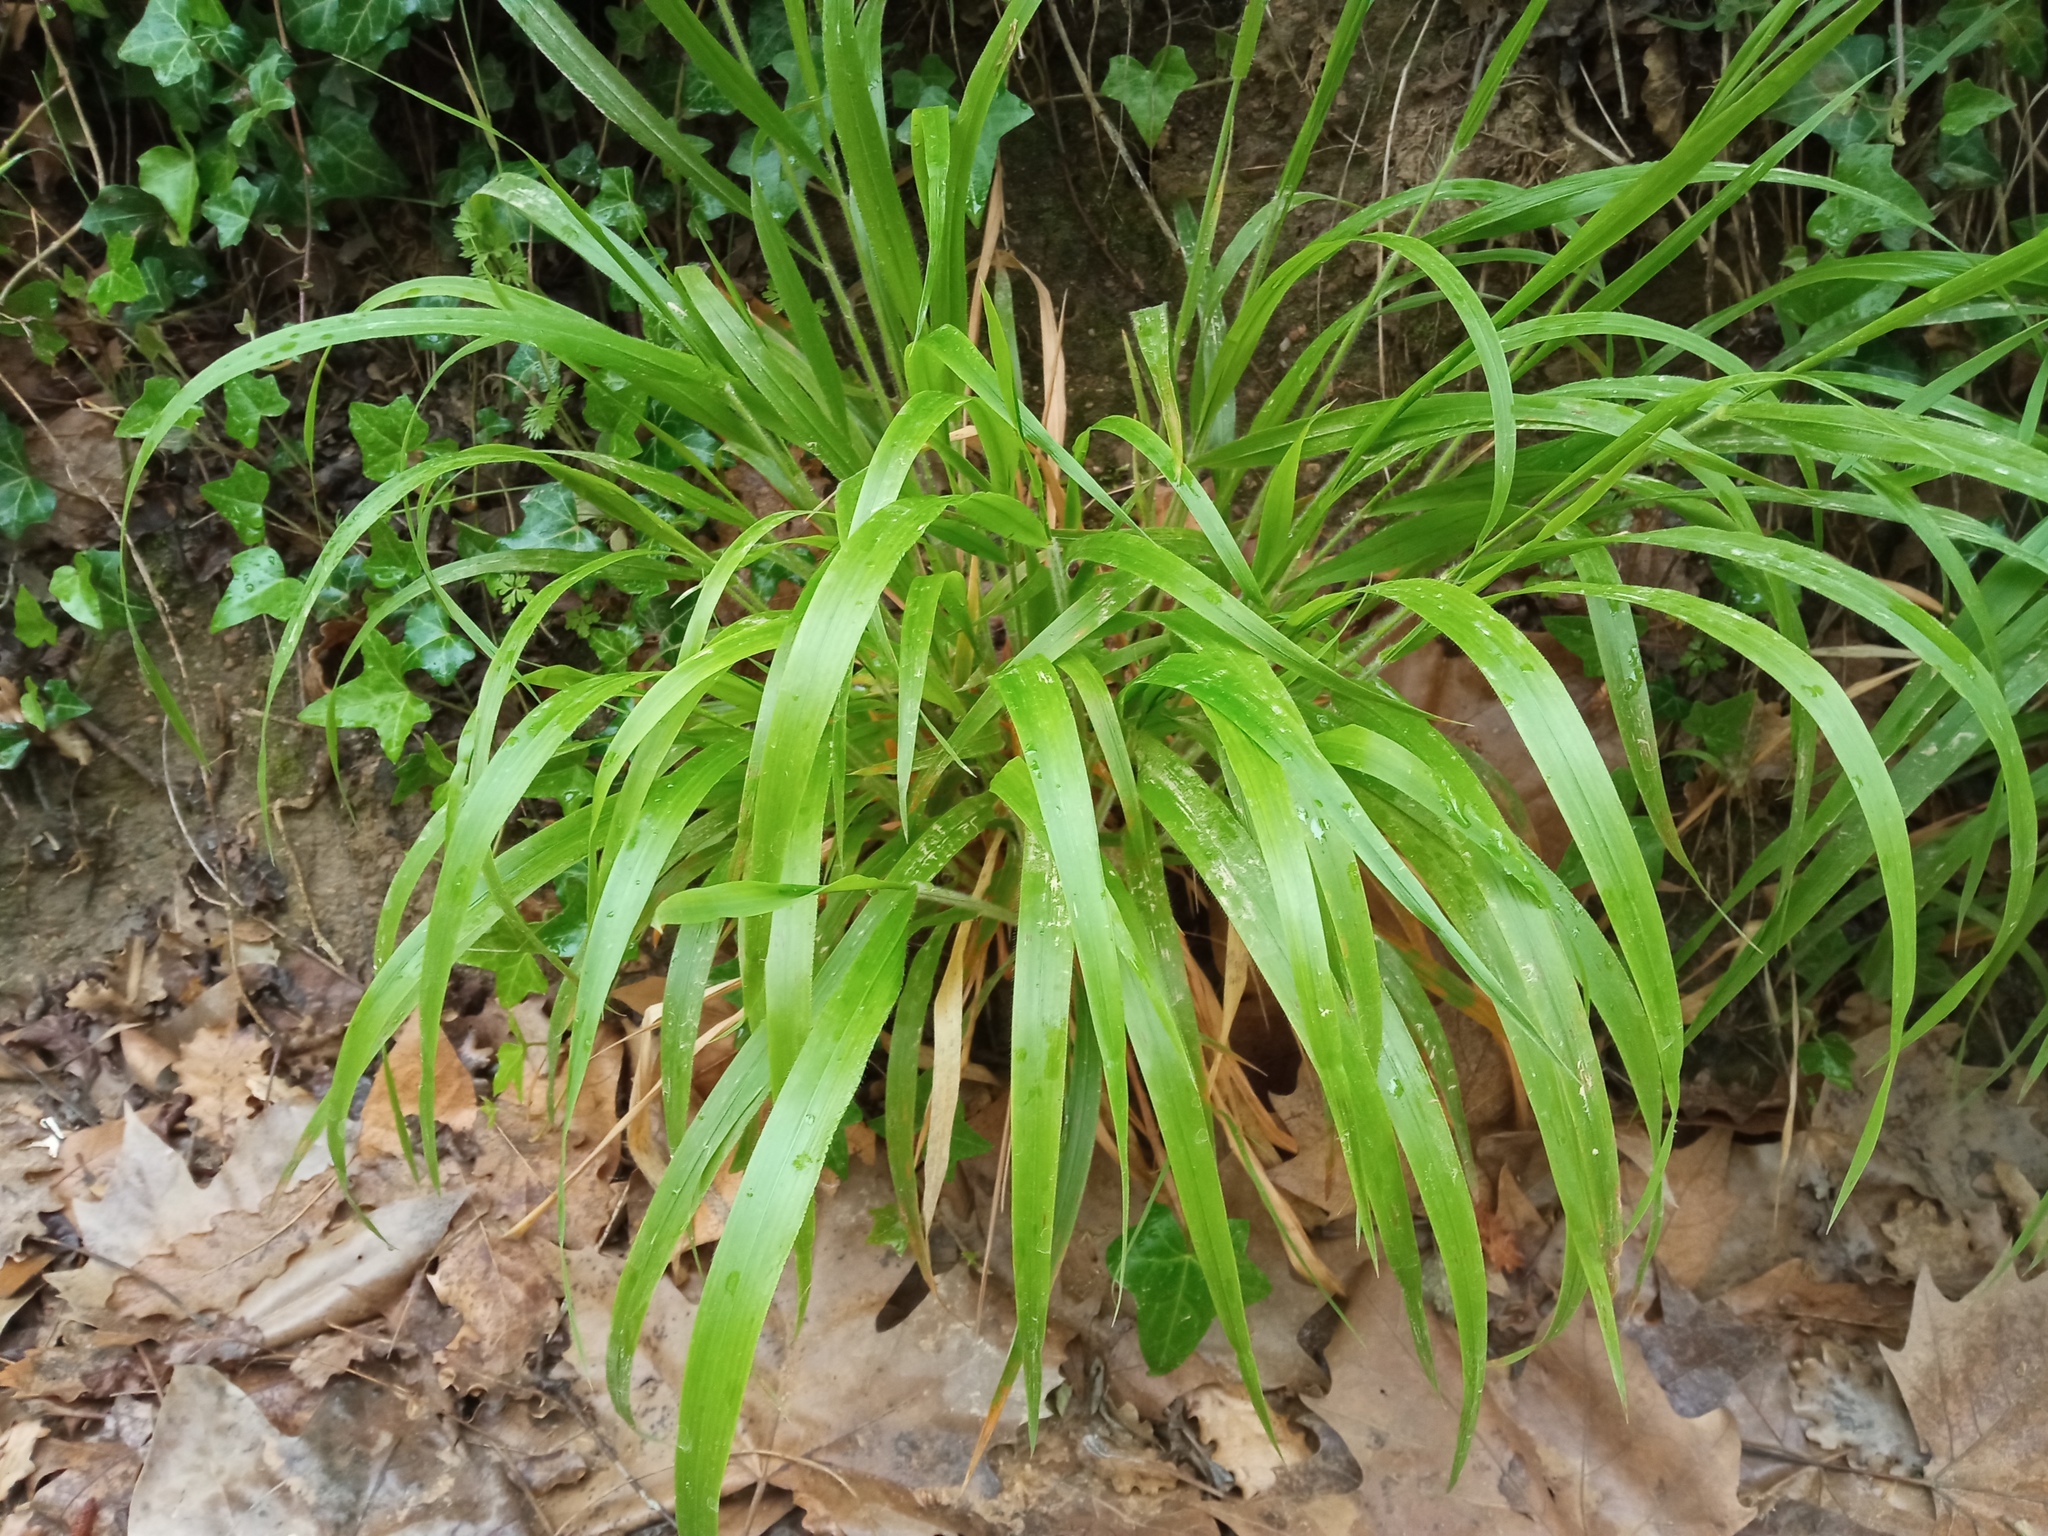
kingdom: Plantae
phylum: Tracheophyta
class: Liliopsida
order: Poales
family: Poaceae
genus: Brachypodium
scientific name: Brachypodium sylvaticum
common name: False-brome
